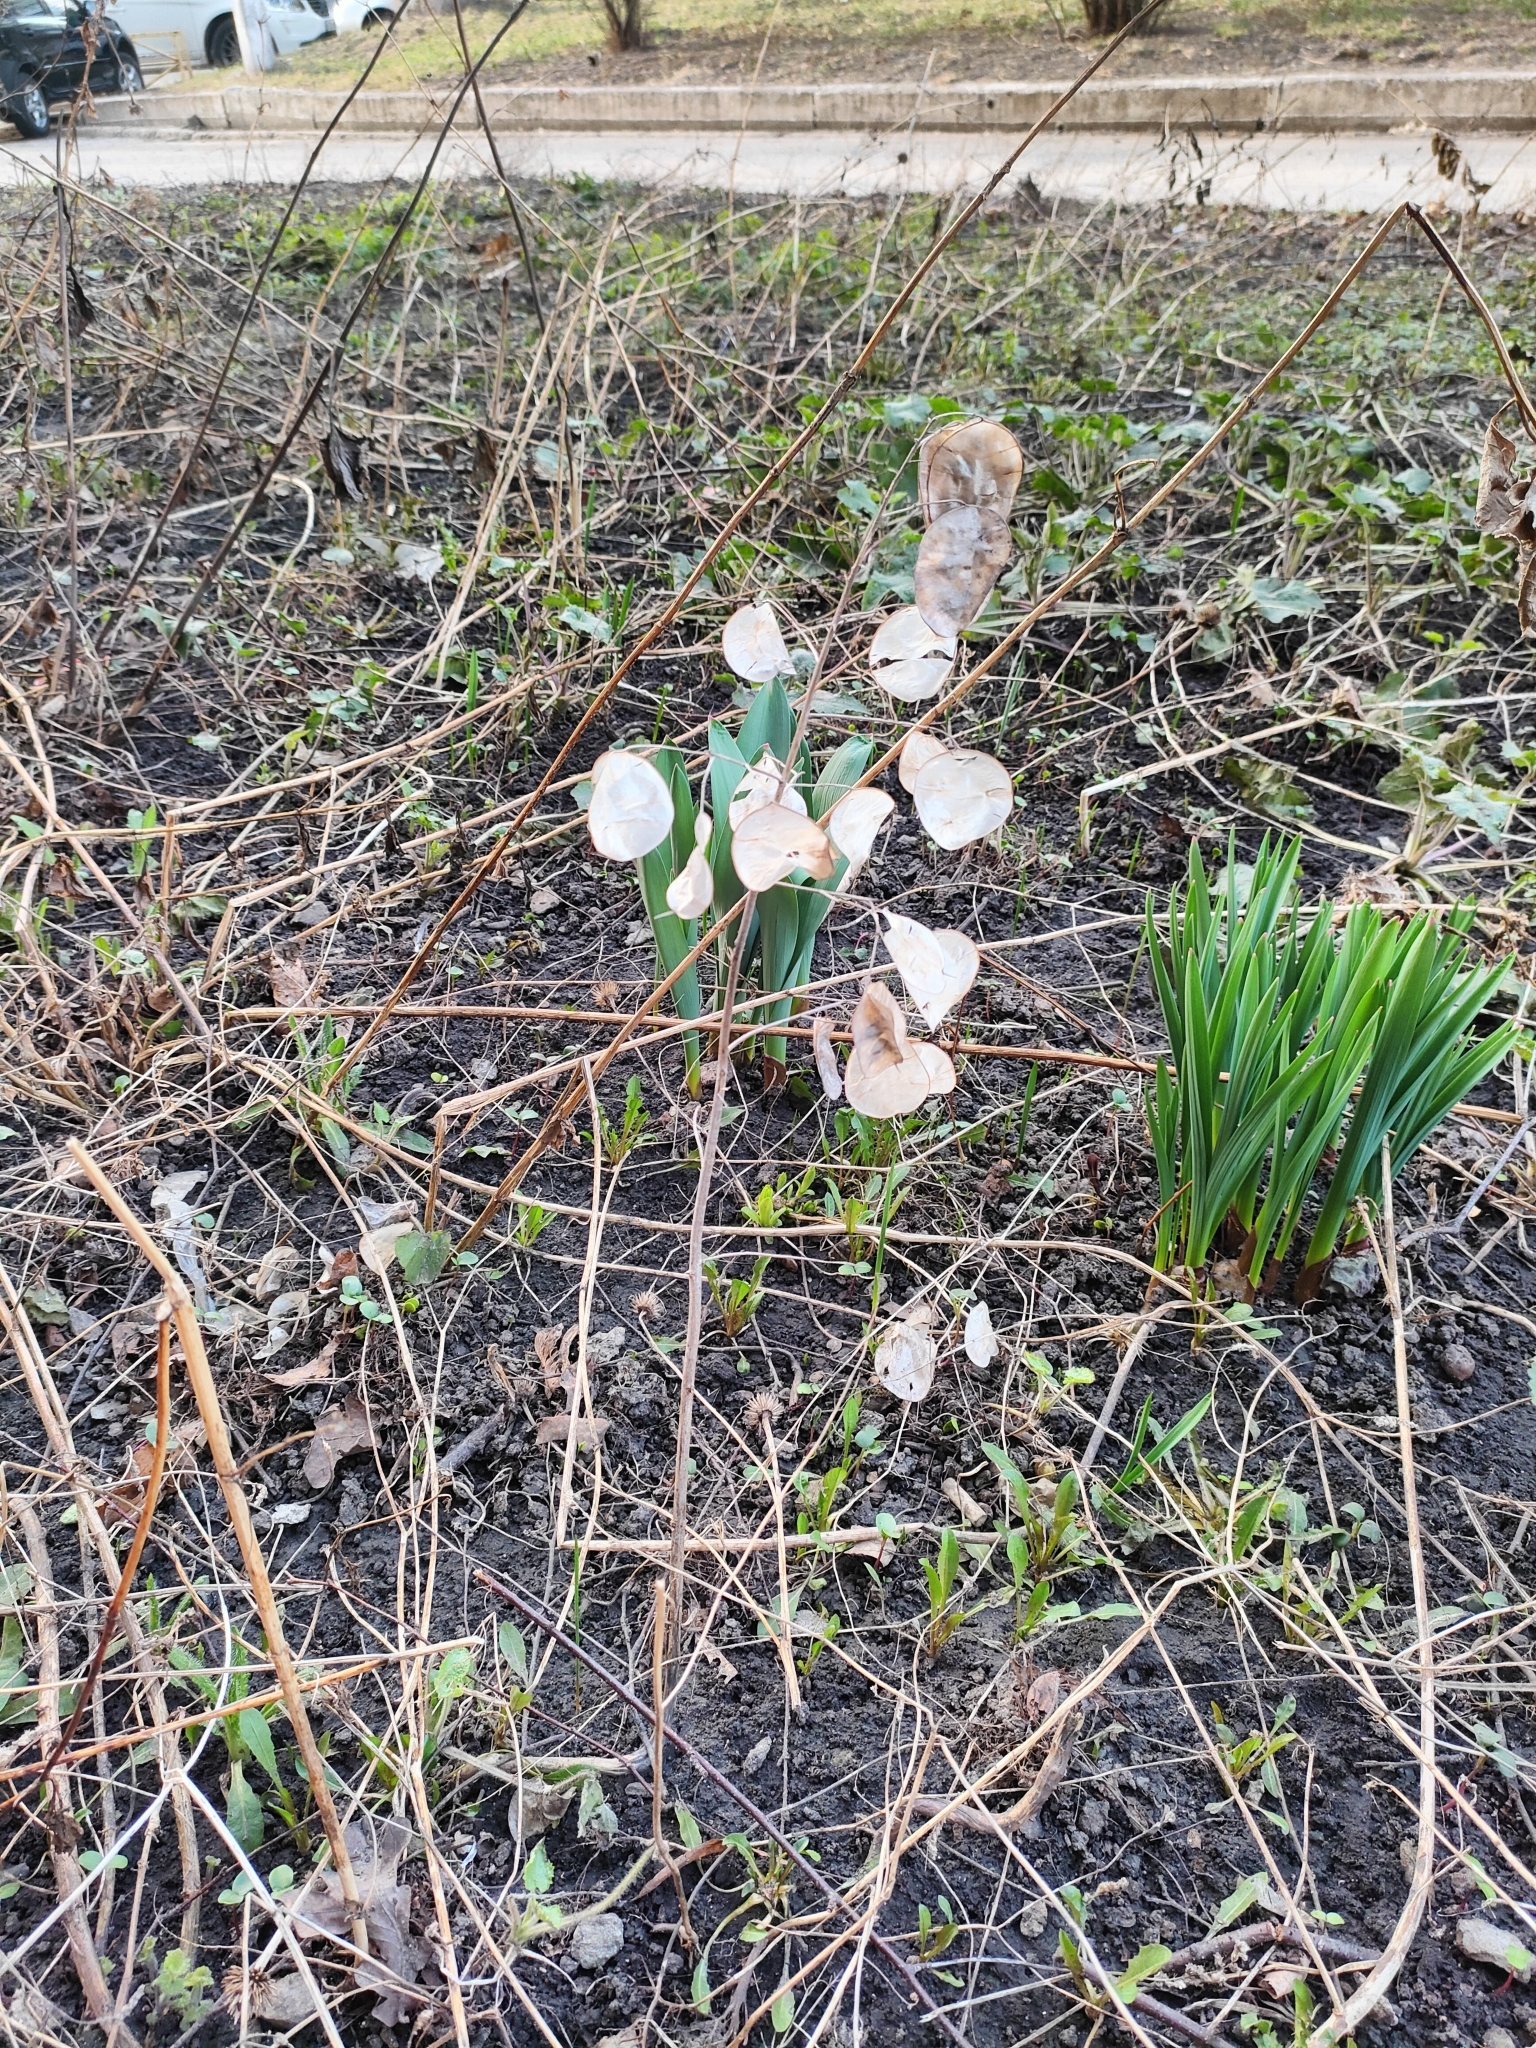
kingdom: Plantae
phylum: Tracheophyta
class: Magnoliopsida
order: Brassicales
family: Brassicaceae
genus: Lunaria
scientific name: Lunaria annua
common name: Honesty
